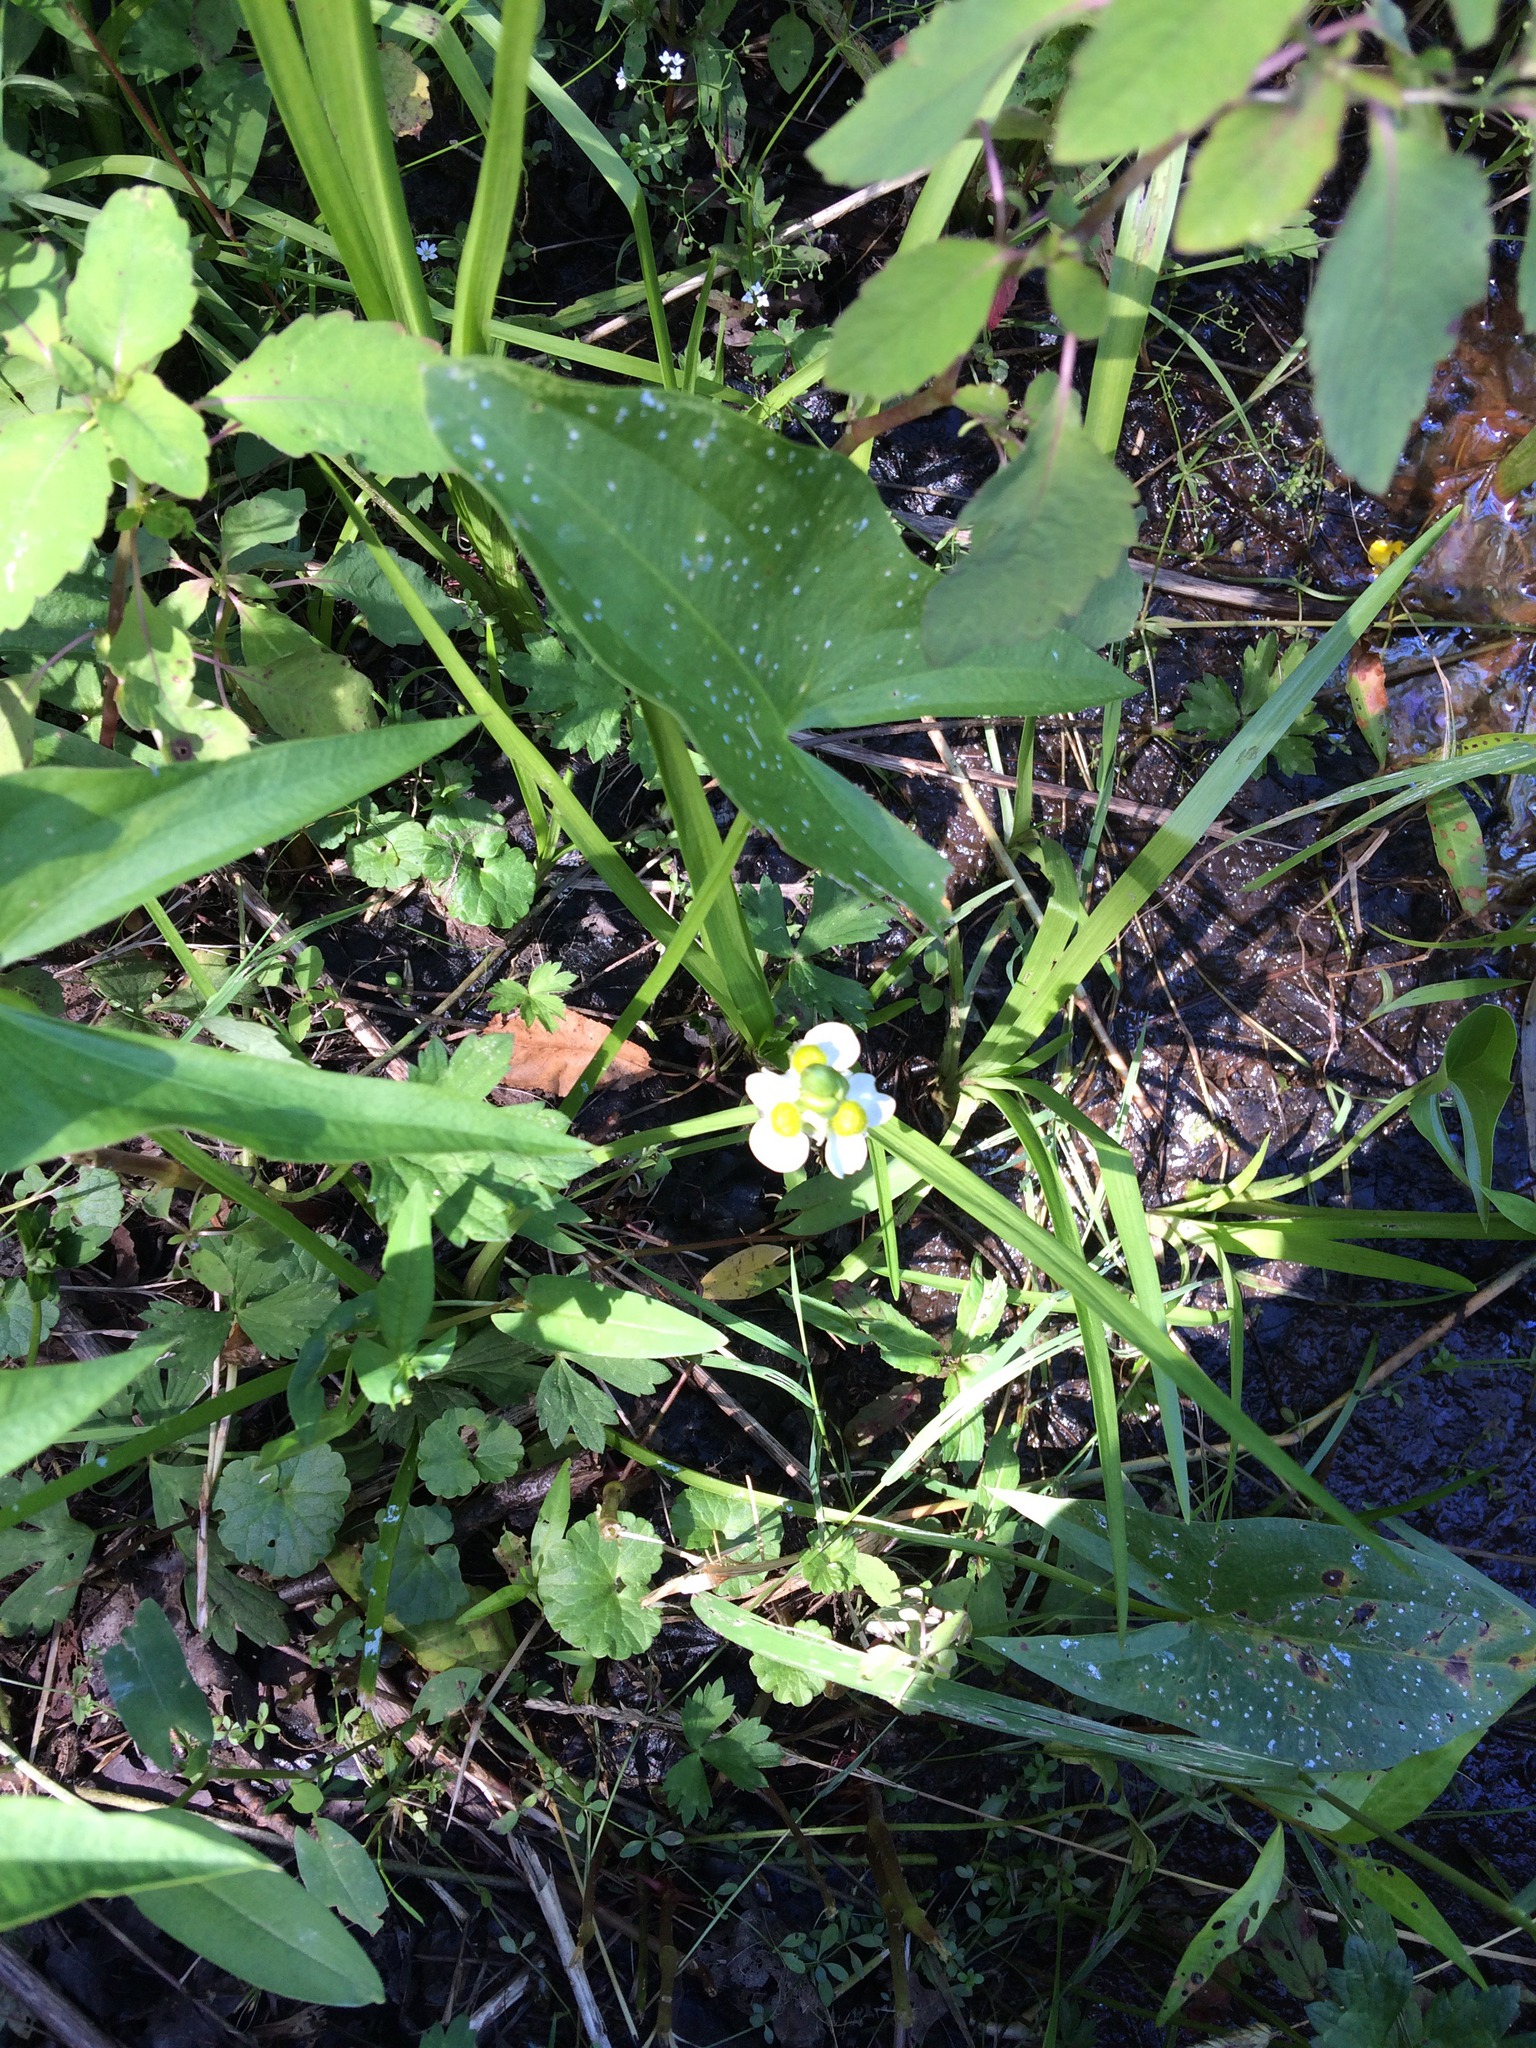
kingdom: Plantae
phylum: Tracheophyta
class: Liliopsida
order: Alismatales
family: Alismataceae
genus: Sagittaria
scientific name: Sagittaria latifolia
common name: Duck-potato
